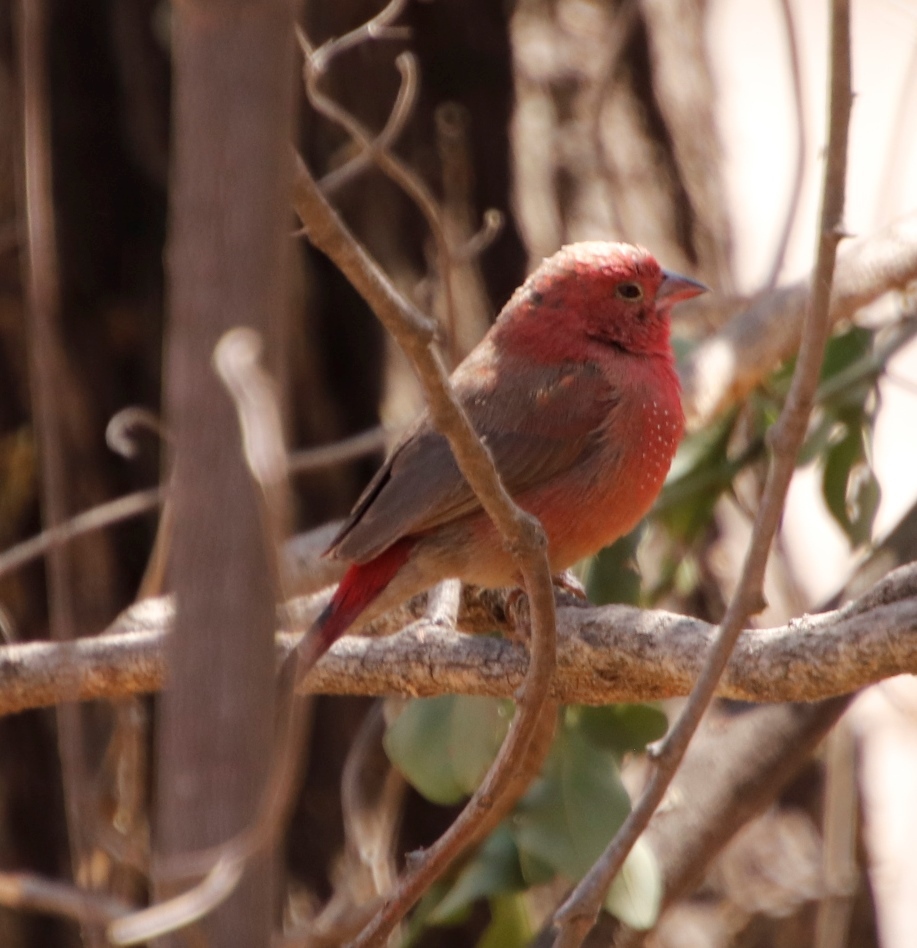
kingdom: Animalia
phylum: Chordata
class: Aves
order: Passeriformes
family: Estrildidae
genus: Lagonosticta
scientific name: Lagonosticta senegala
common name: Red-billed firefinch
